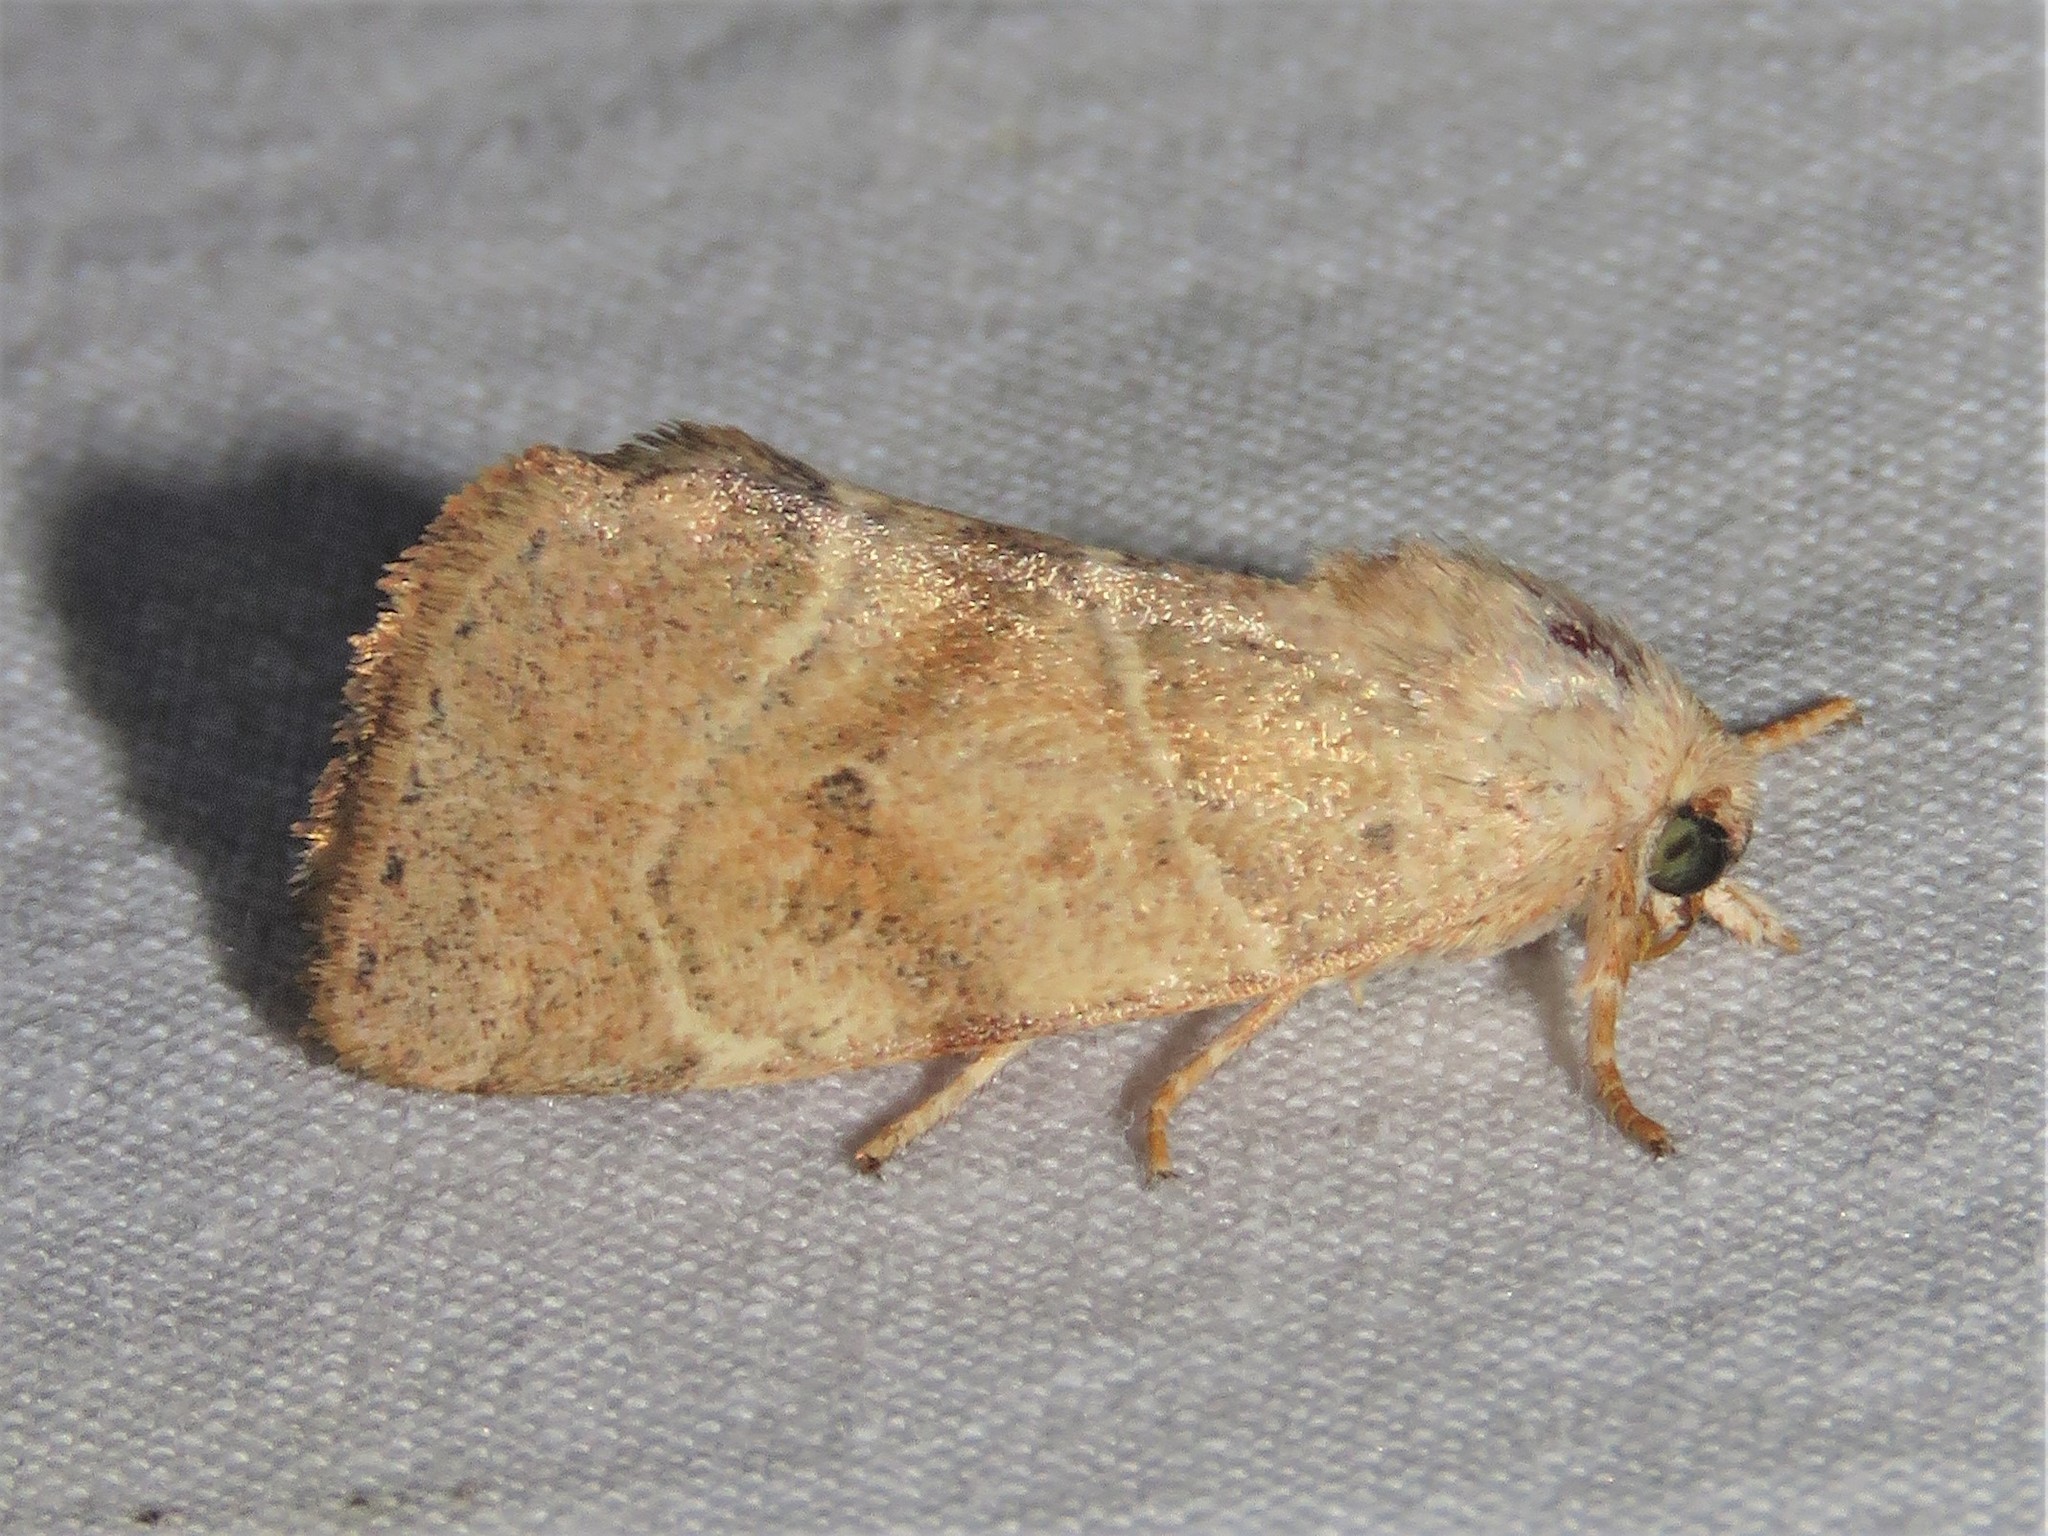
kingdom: Animalia
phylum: Arthropoda
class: Insecta
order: Lepidoptera
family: Noctuidae
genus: Cosmia
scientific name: Cosmia calami
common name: American dun-bar moth
